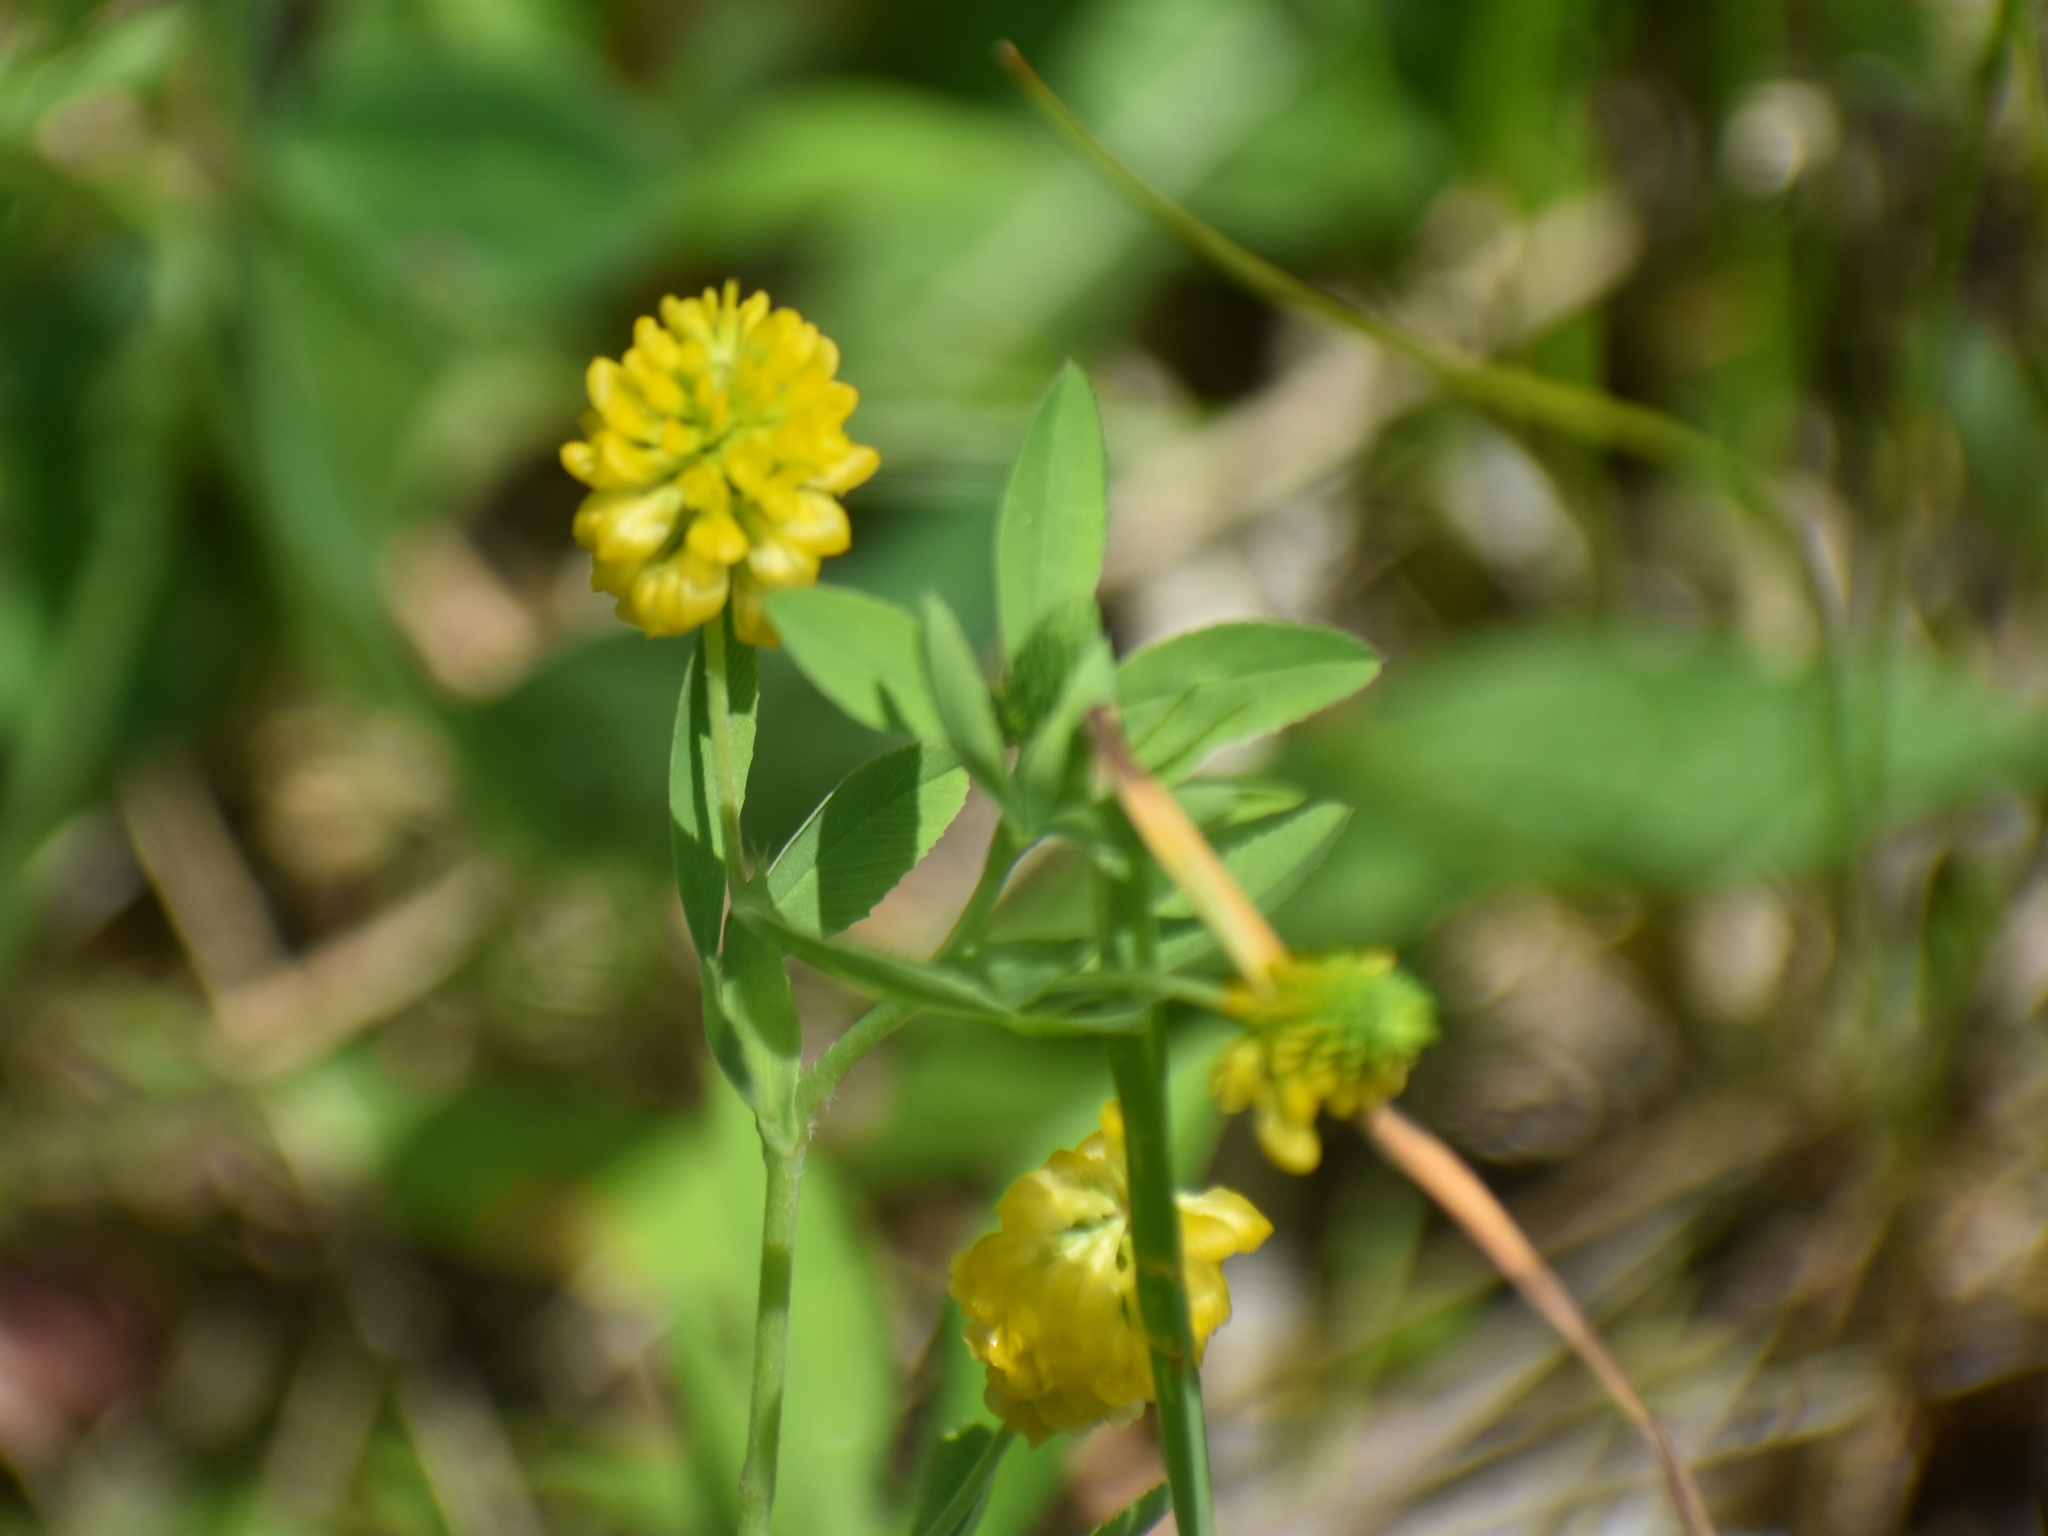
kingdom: Plantae
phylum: Tracheophyta
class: Magnoliopsida
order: Fabales
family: Fabaceae
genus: Trifolium
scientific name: Trifolium aureum
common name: Golden clover
